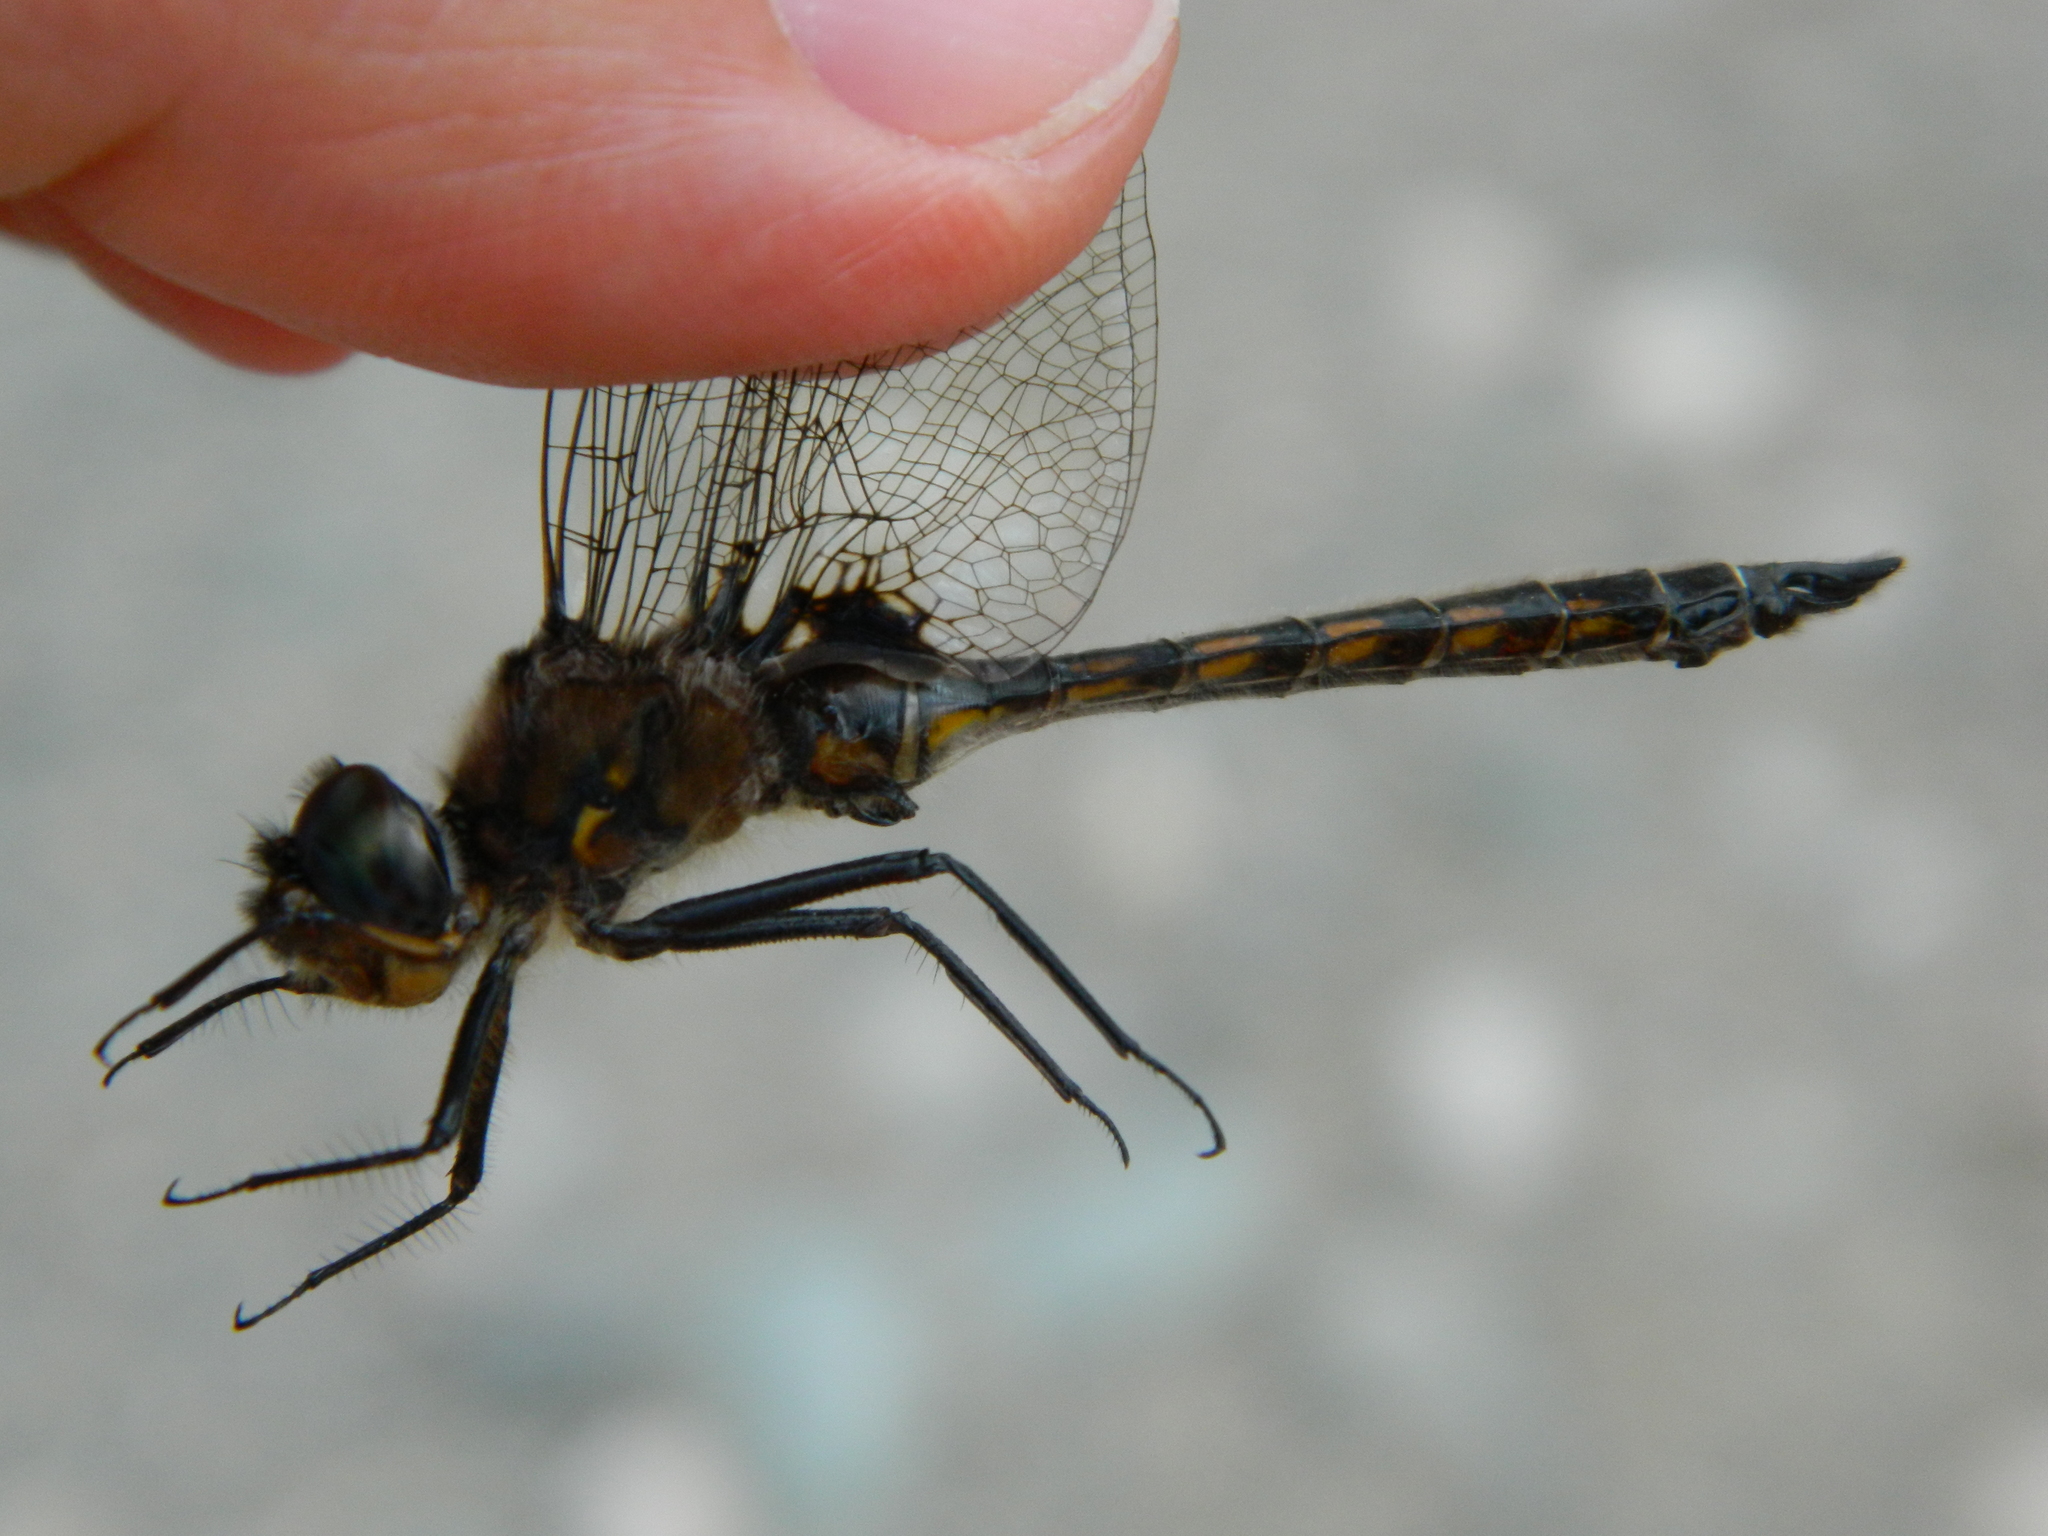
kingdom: Animalia
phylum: Arthropoda
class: Insecta
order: Odonata
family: Corduliidae
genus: Epitheca
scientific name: Epitheca spinigera
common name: Spiny baskettail
